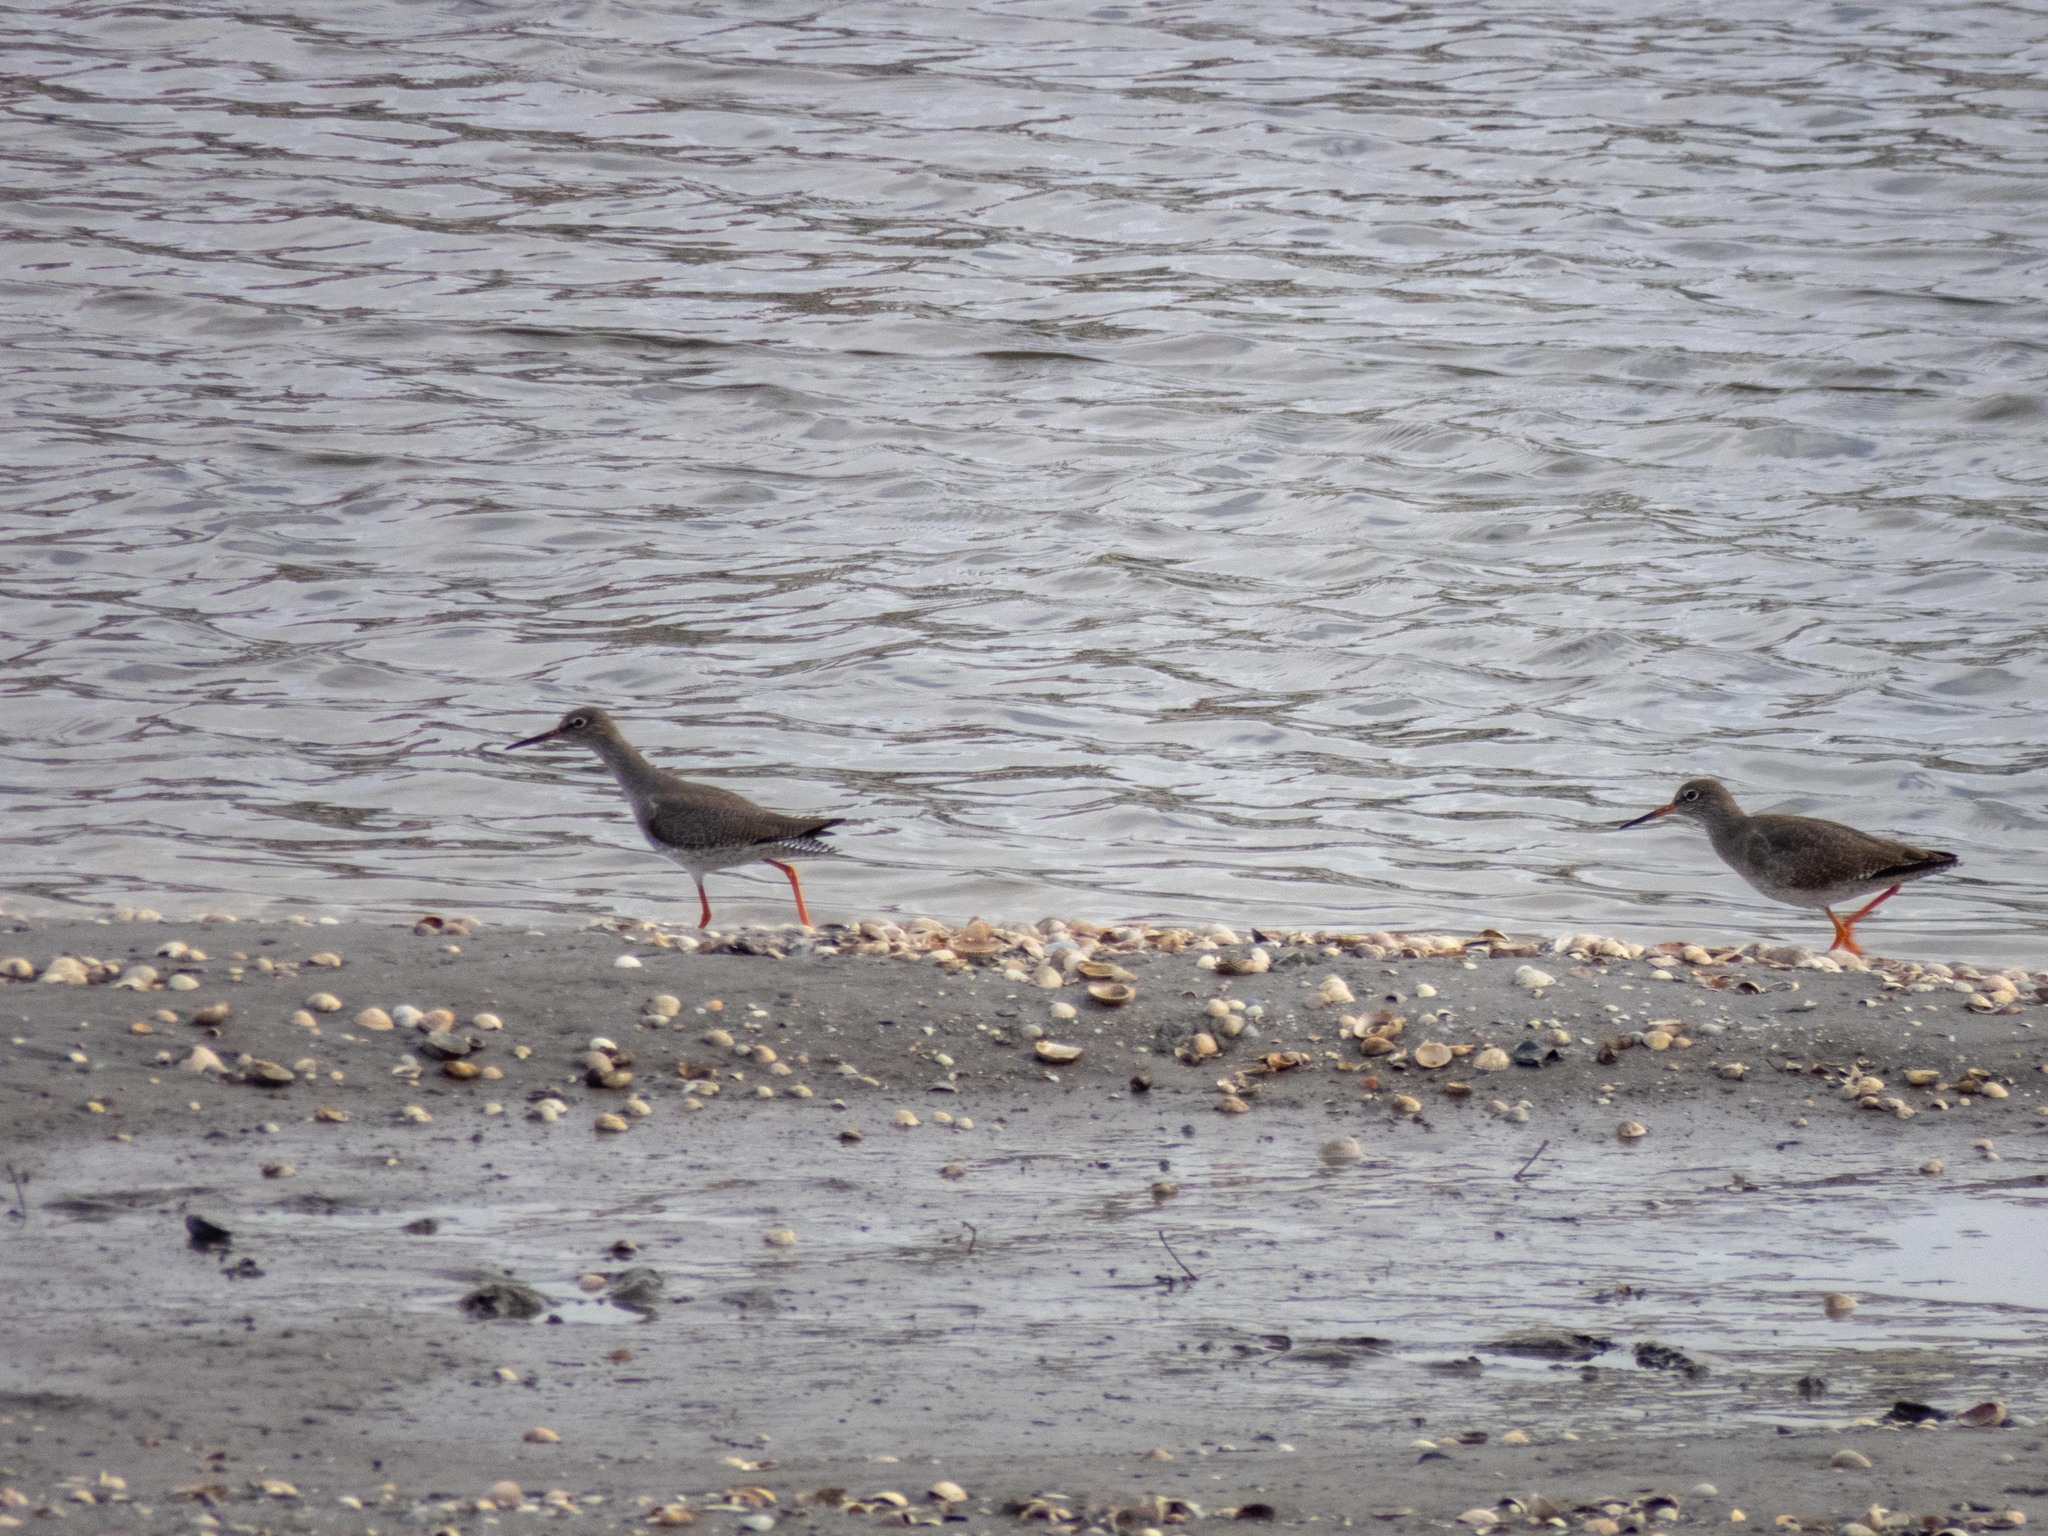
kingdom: Animalia
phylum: Chordata
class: Aves
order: Charadriiformes
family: Scolopacidae
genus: Tringa
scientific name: Tringa totanus
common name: Common redshank
